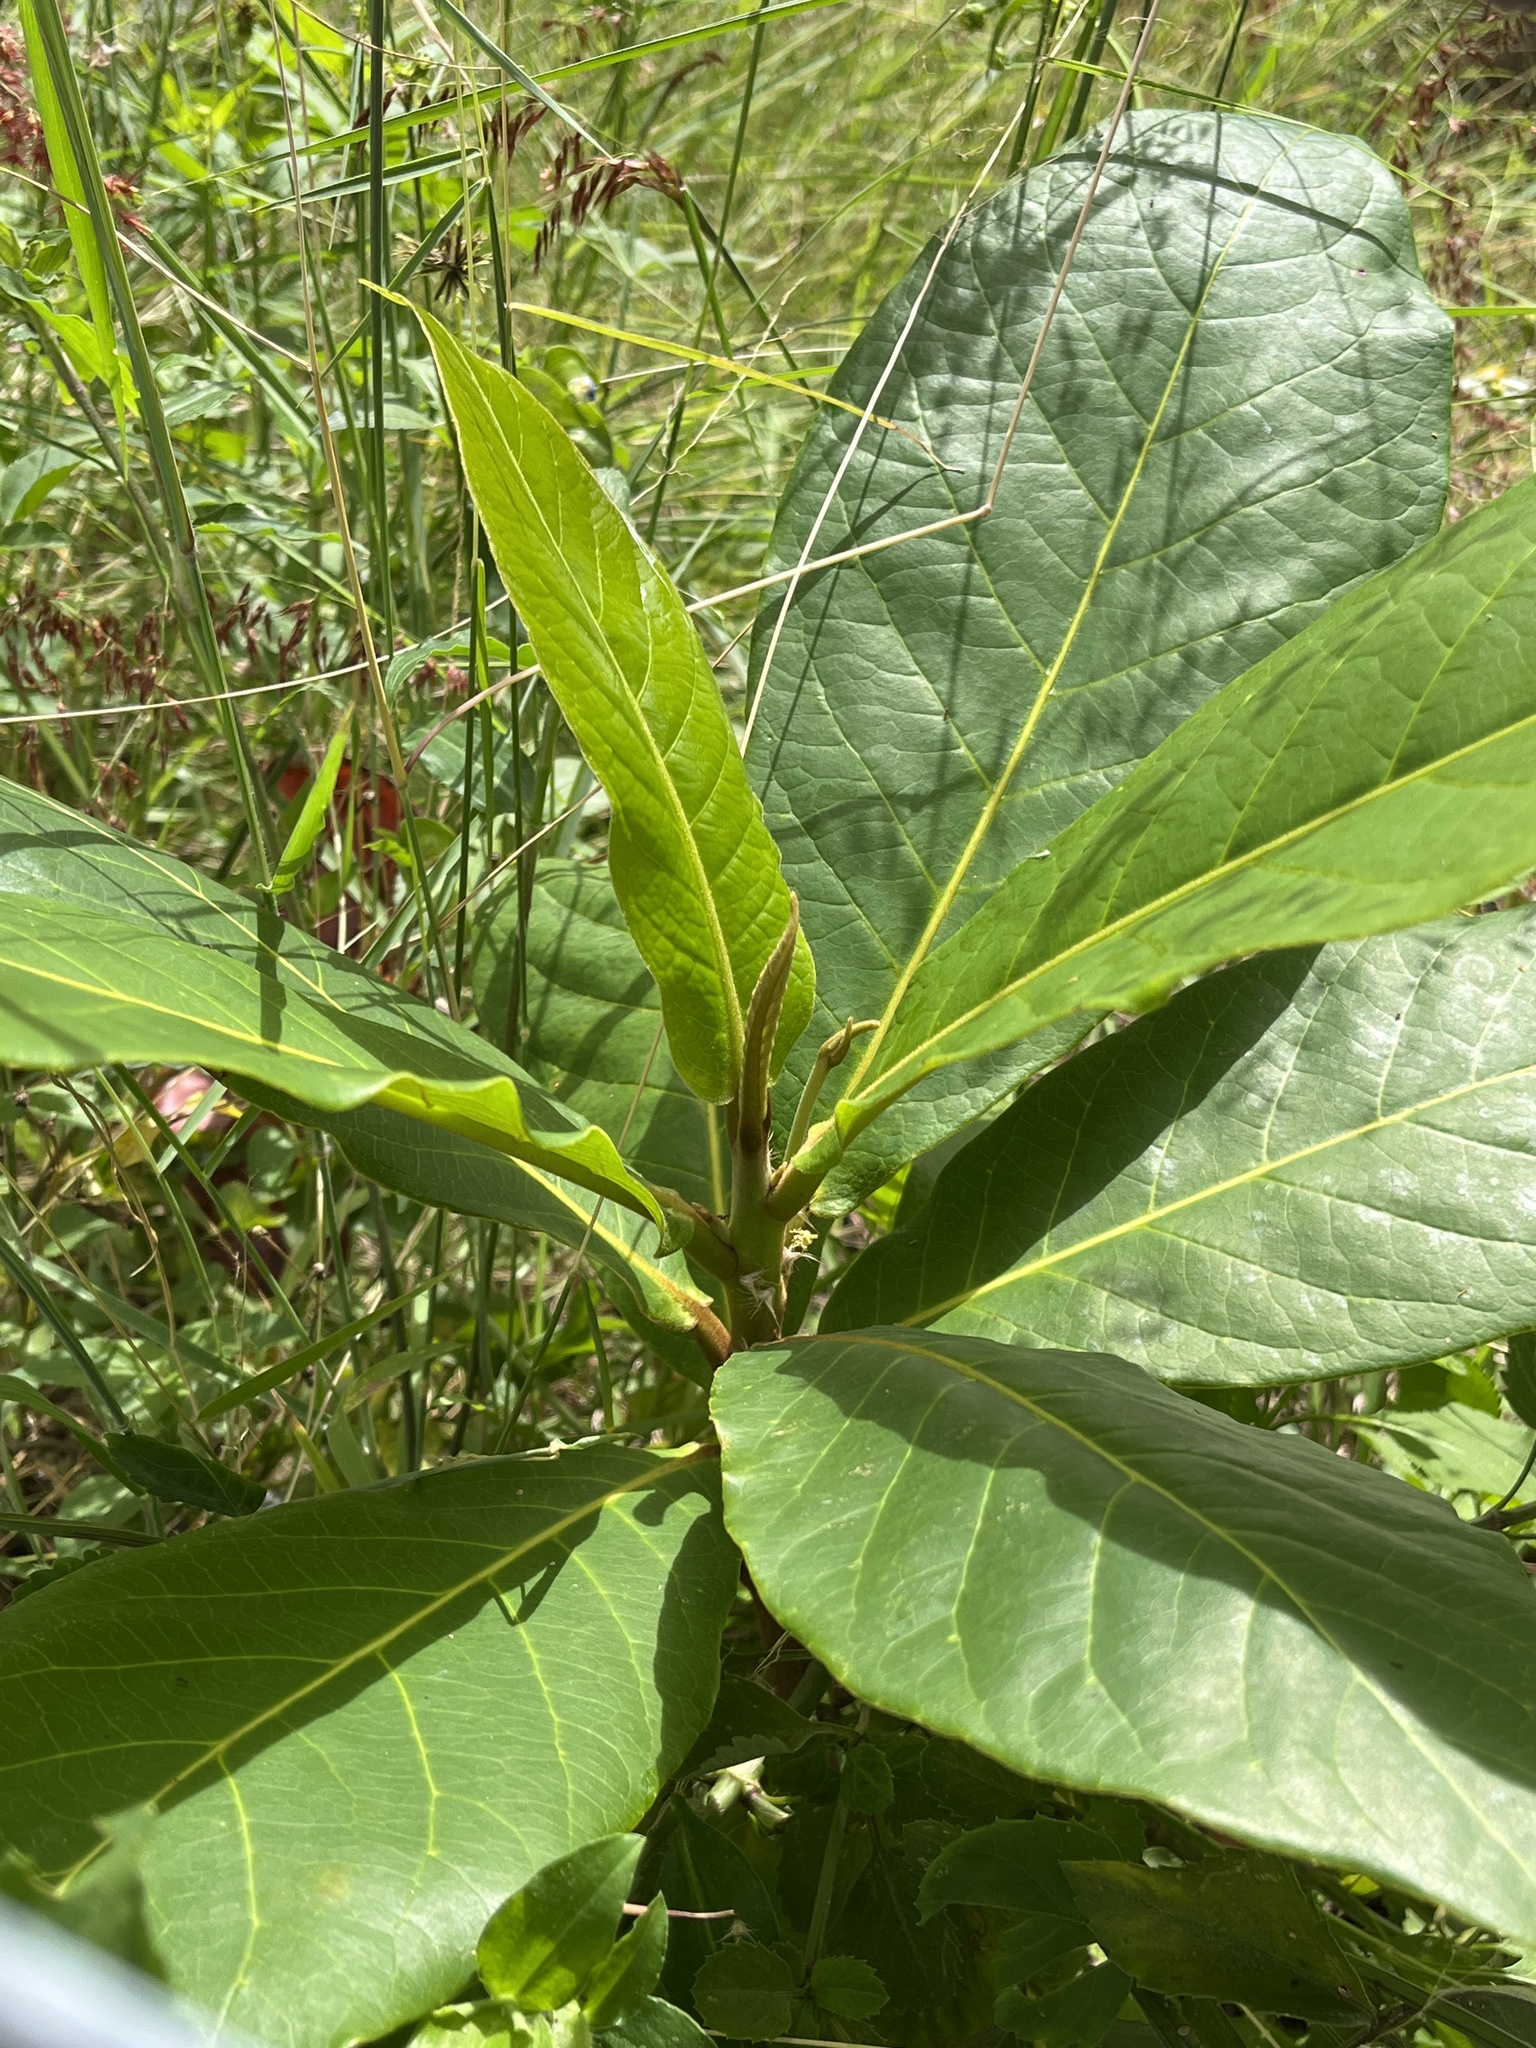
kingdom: Plantae
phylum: Tracheophyta
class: Magnoliopsida
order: Myrtales
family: Combretaceae
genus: Terminalia
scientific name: Terminalia catappa
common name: Tropical almond
